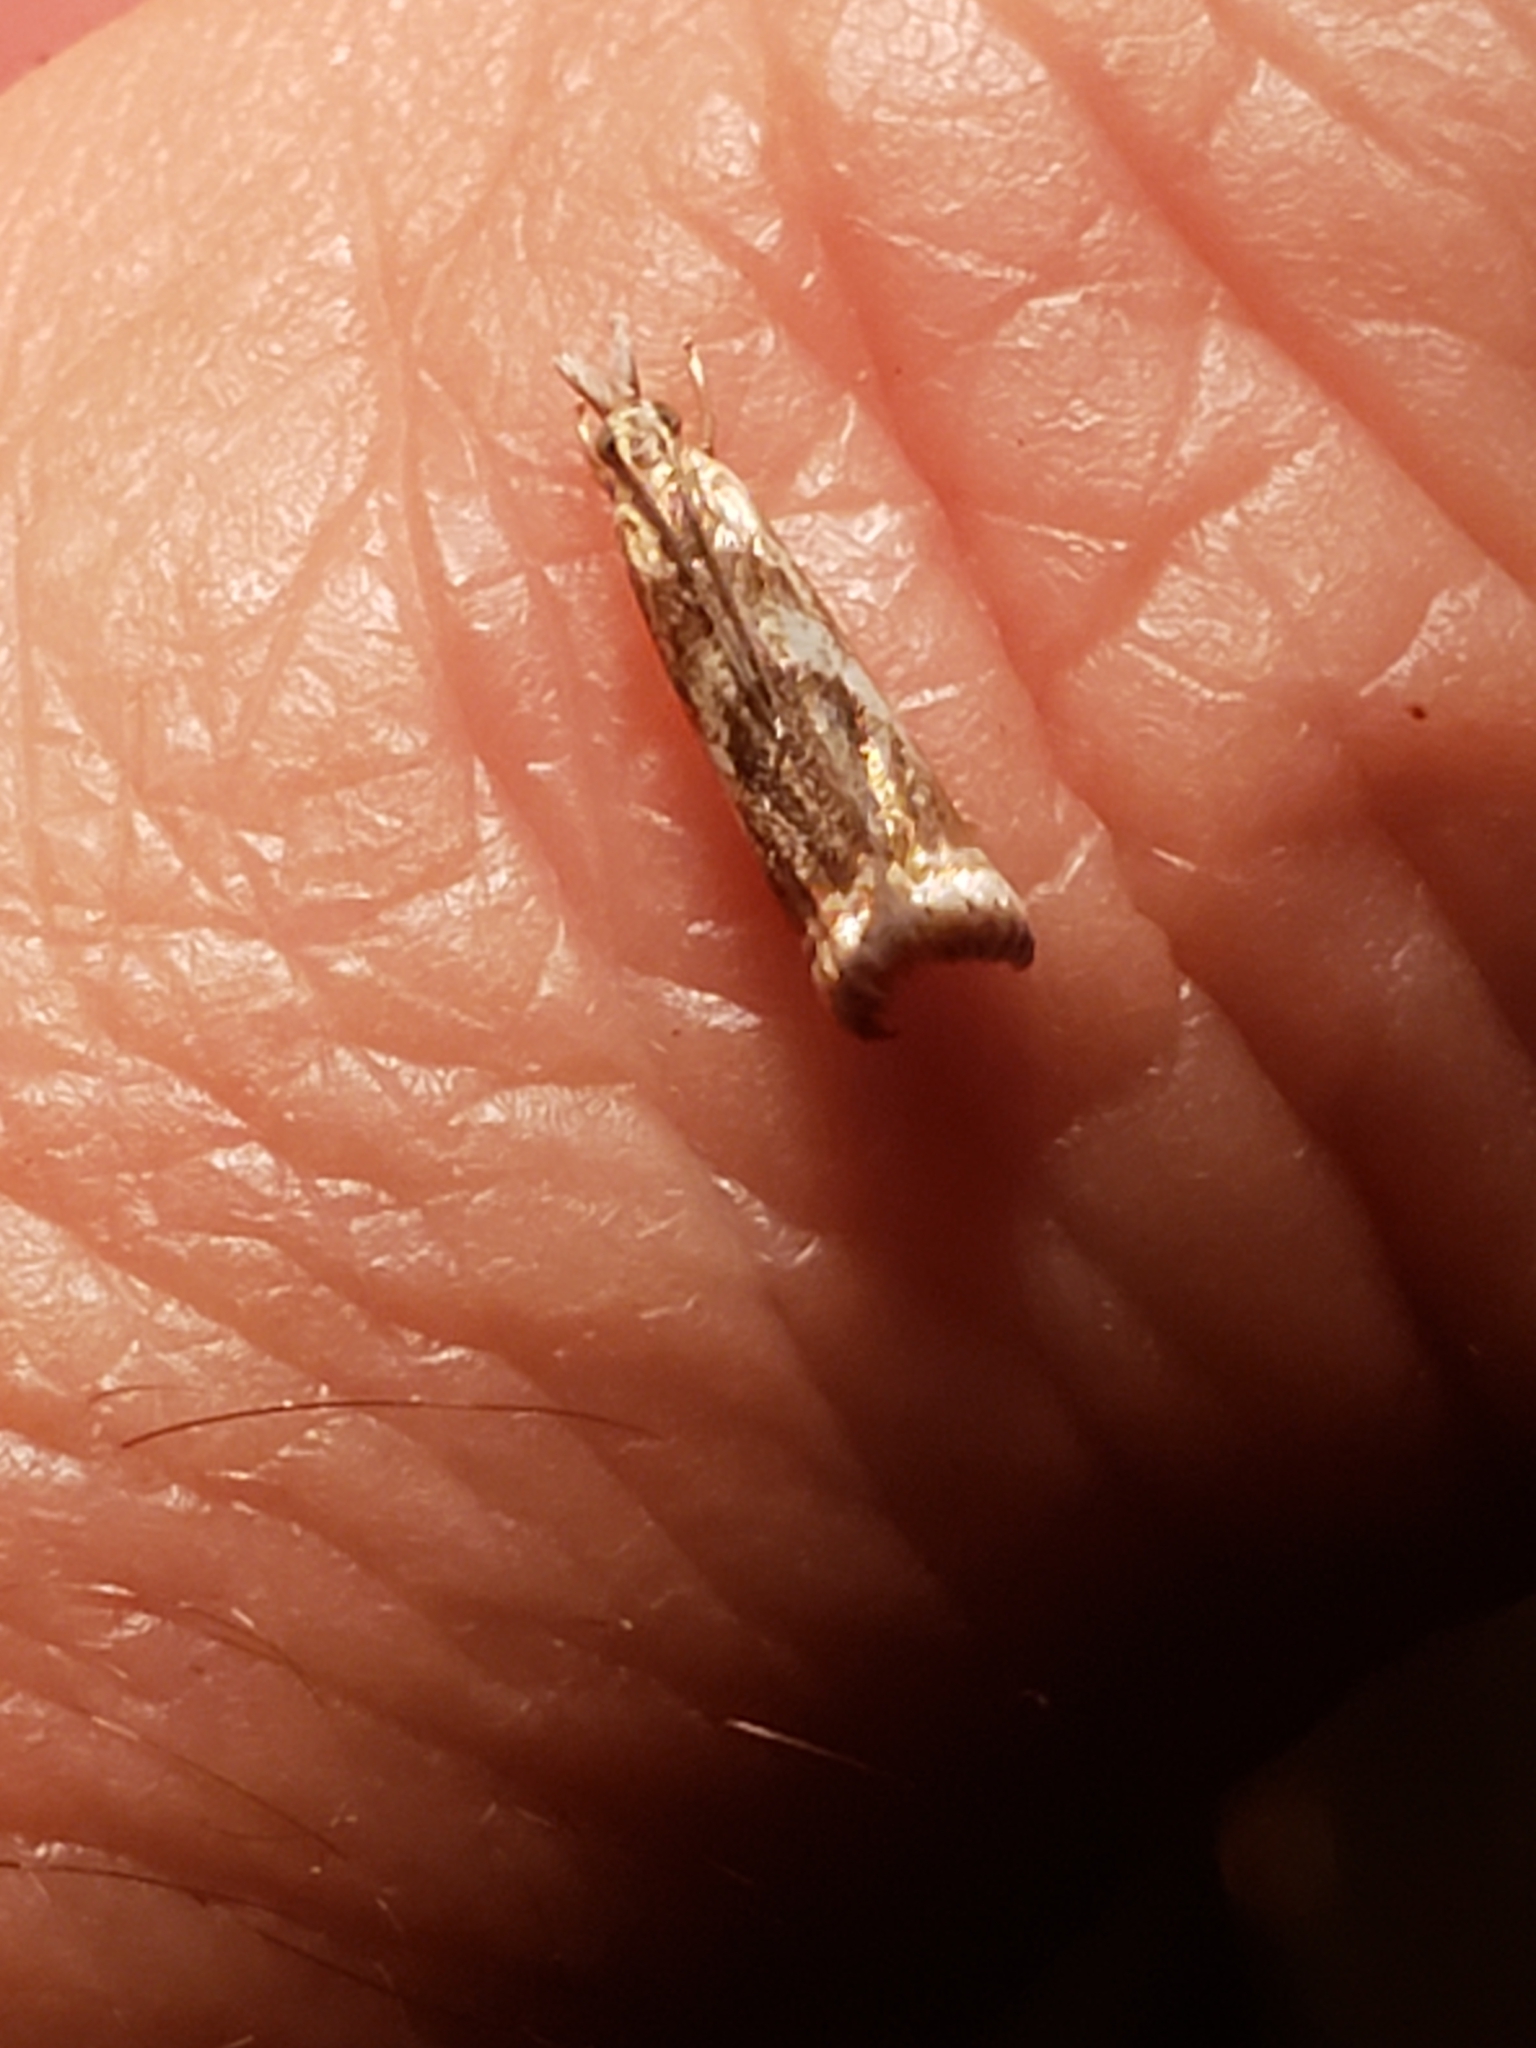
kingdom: Animalia
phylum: Arthropoda
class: Insecta
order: Lepidoptera
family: Crambidae
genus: Microcrambus
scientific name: Microcrambus elegans
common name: Elegant grass-veneer
